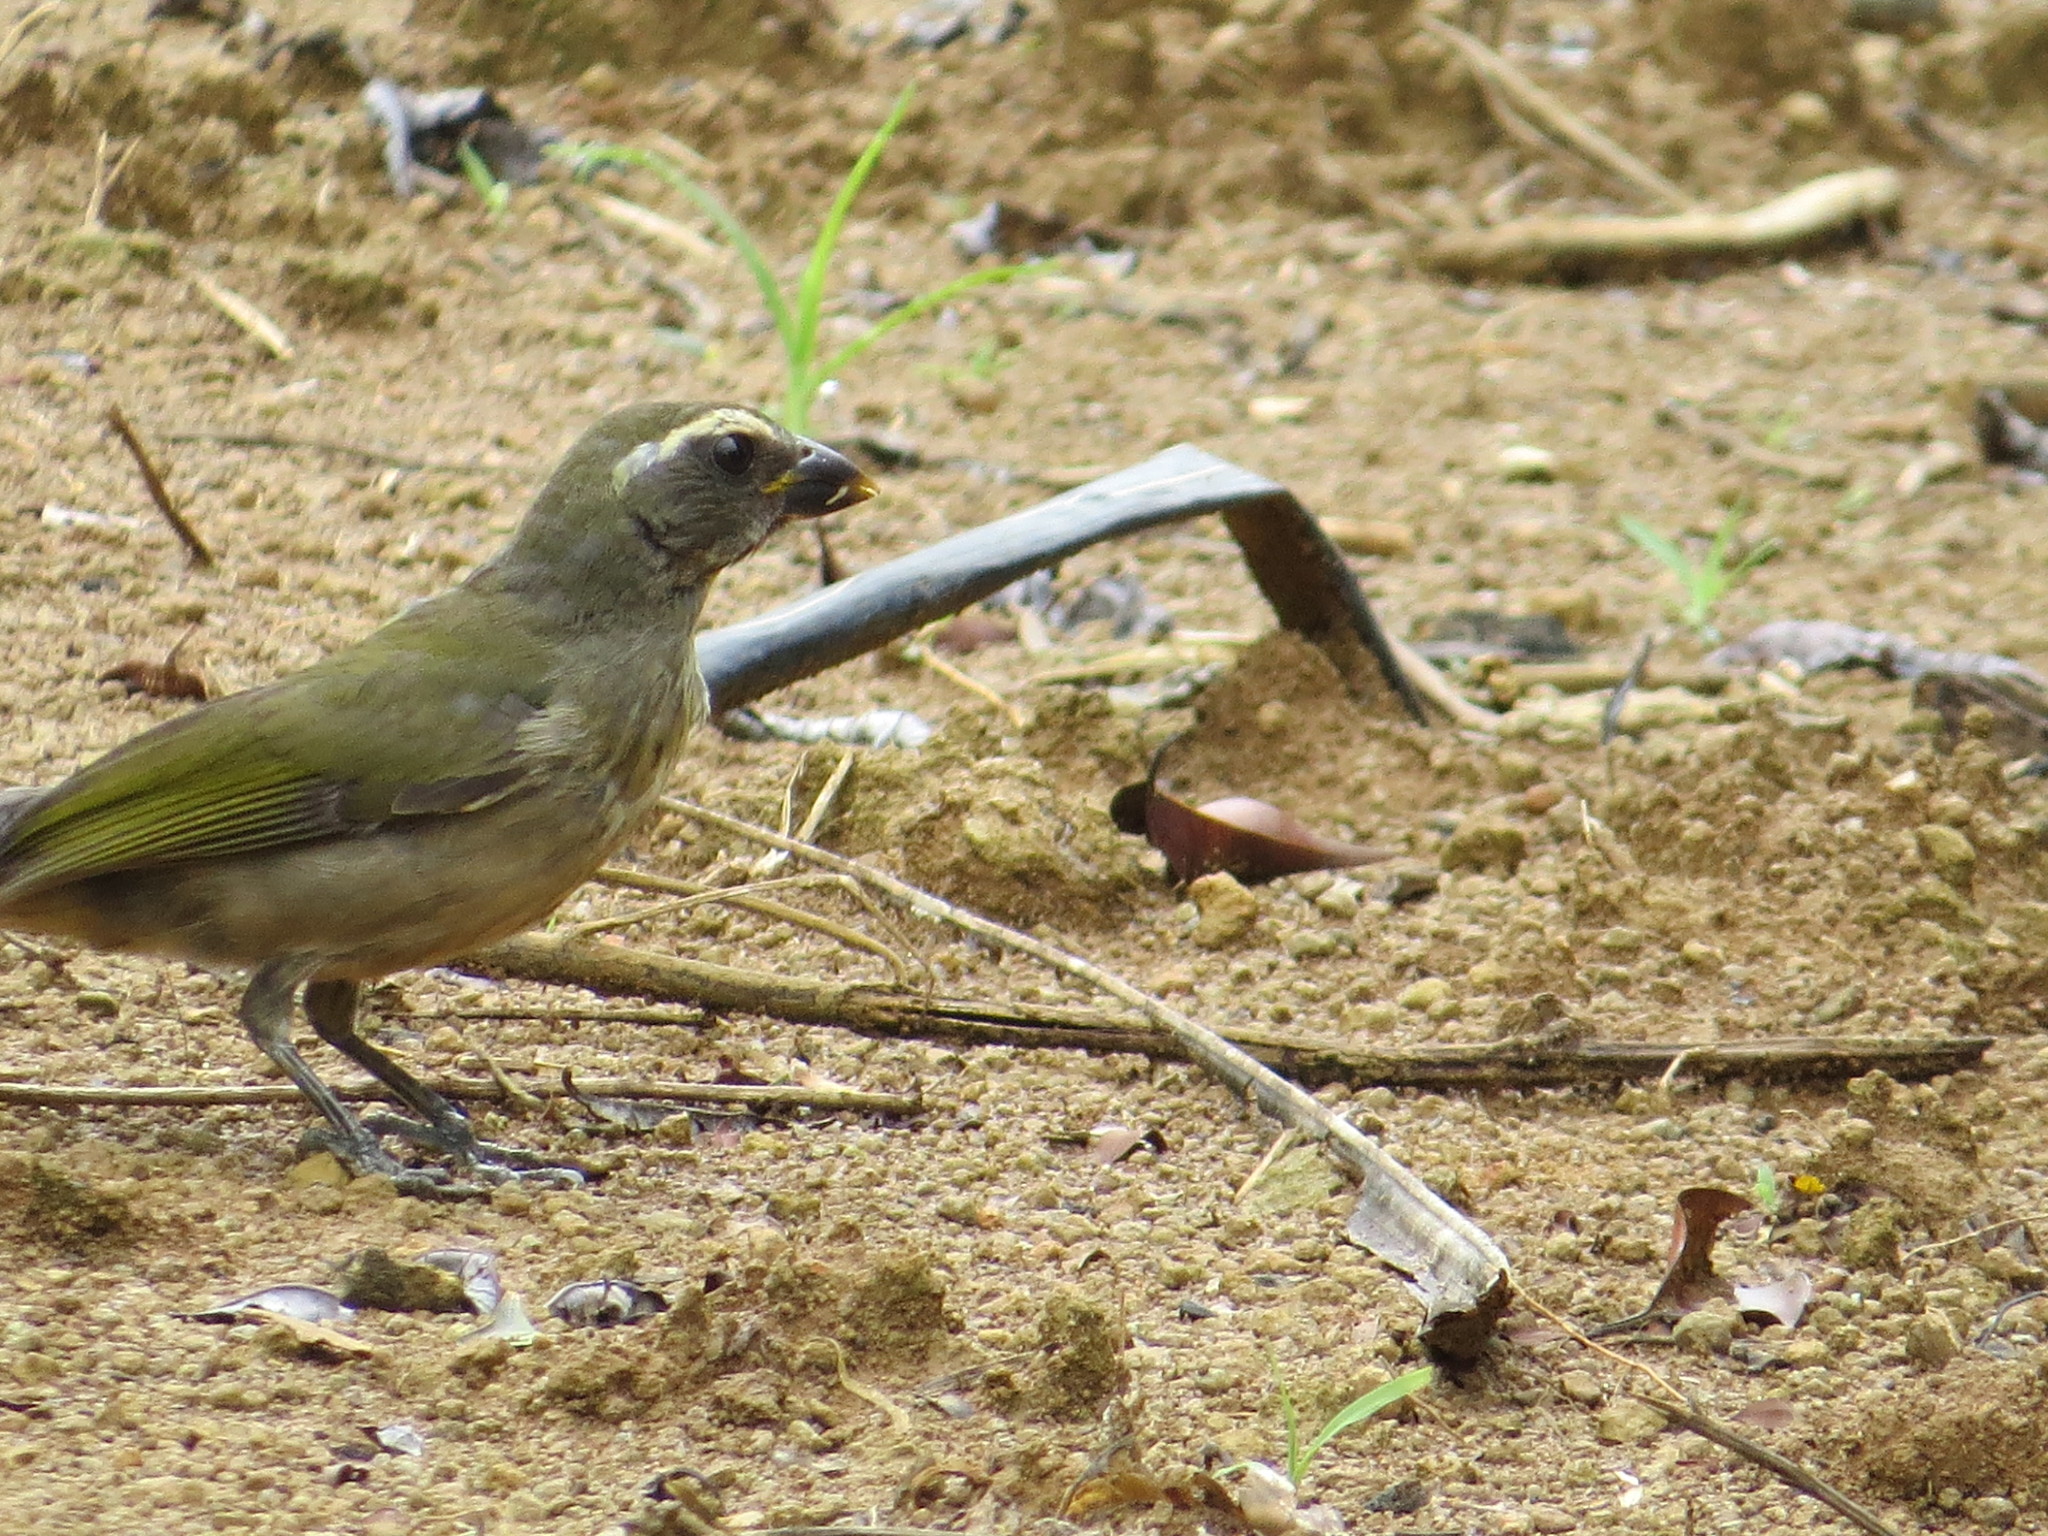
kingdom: Animalia
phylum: Chordata
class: Aves
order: Passeriformes
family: Thraupidae
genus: Saltator
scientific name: Saltator similis
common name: Green-winged saltator
